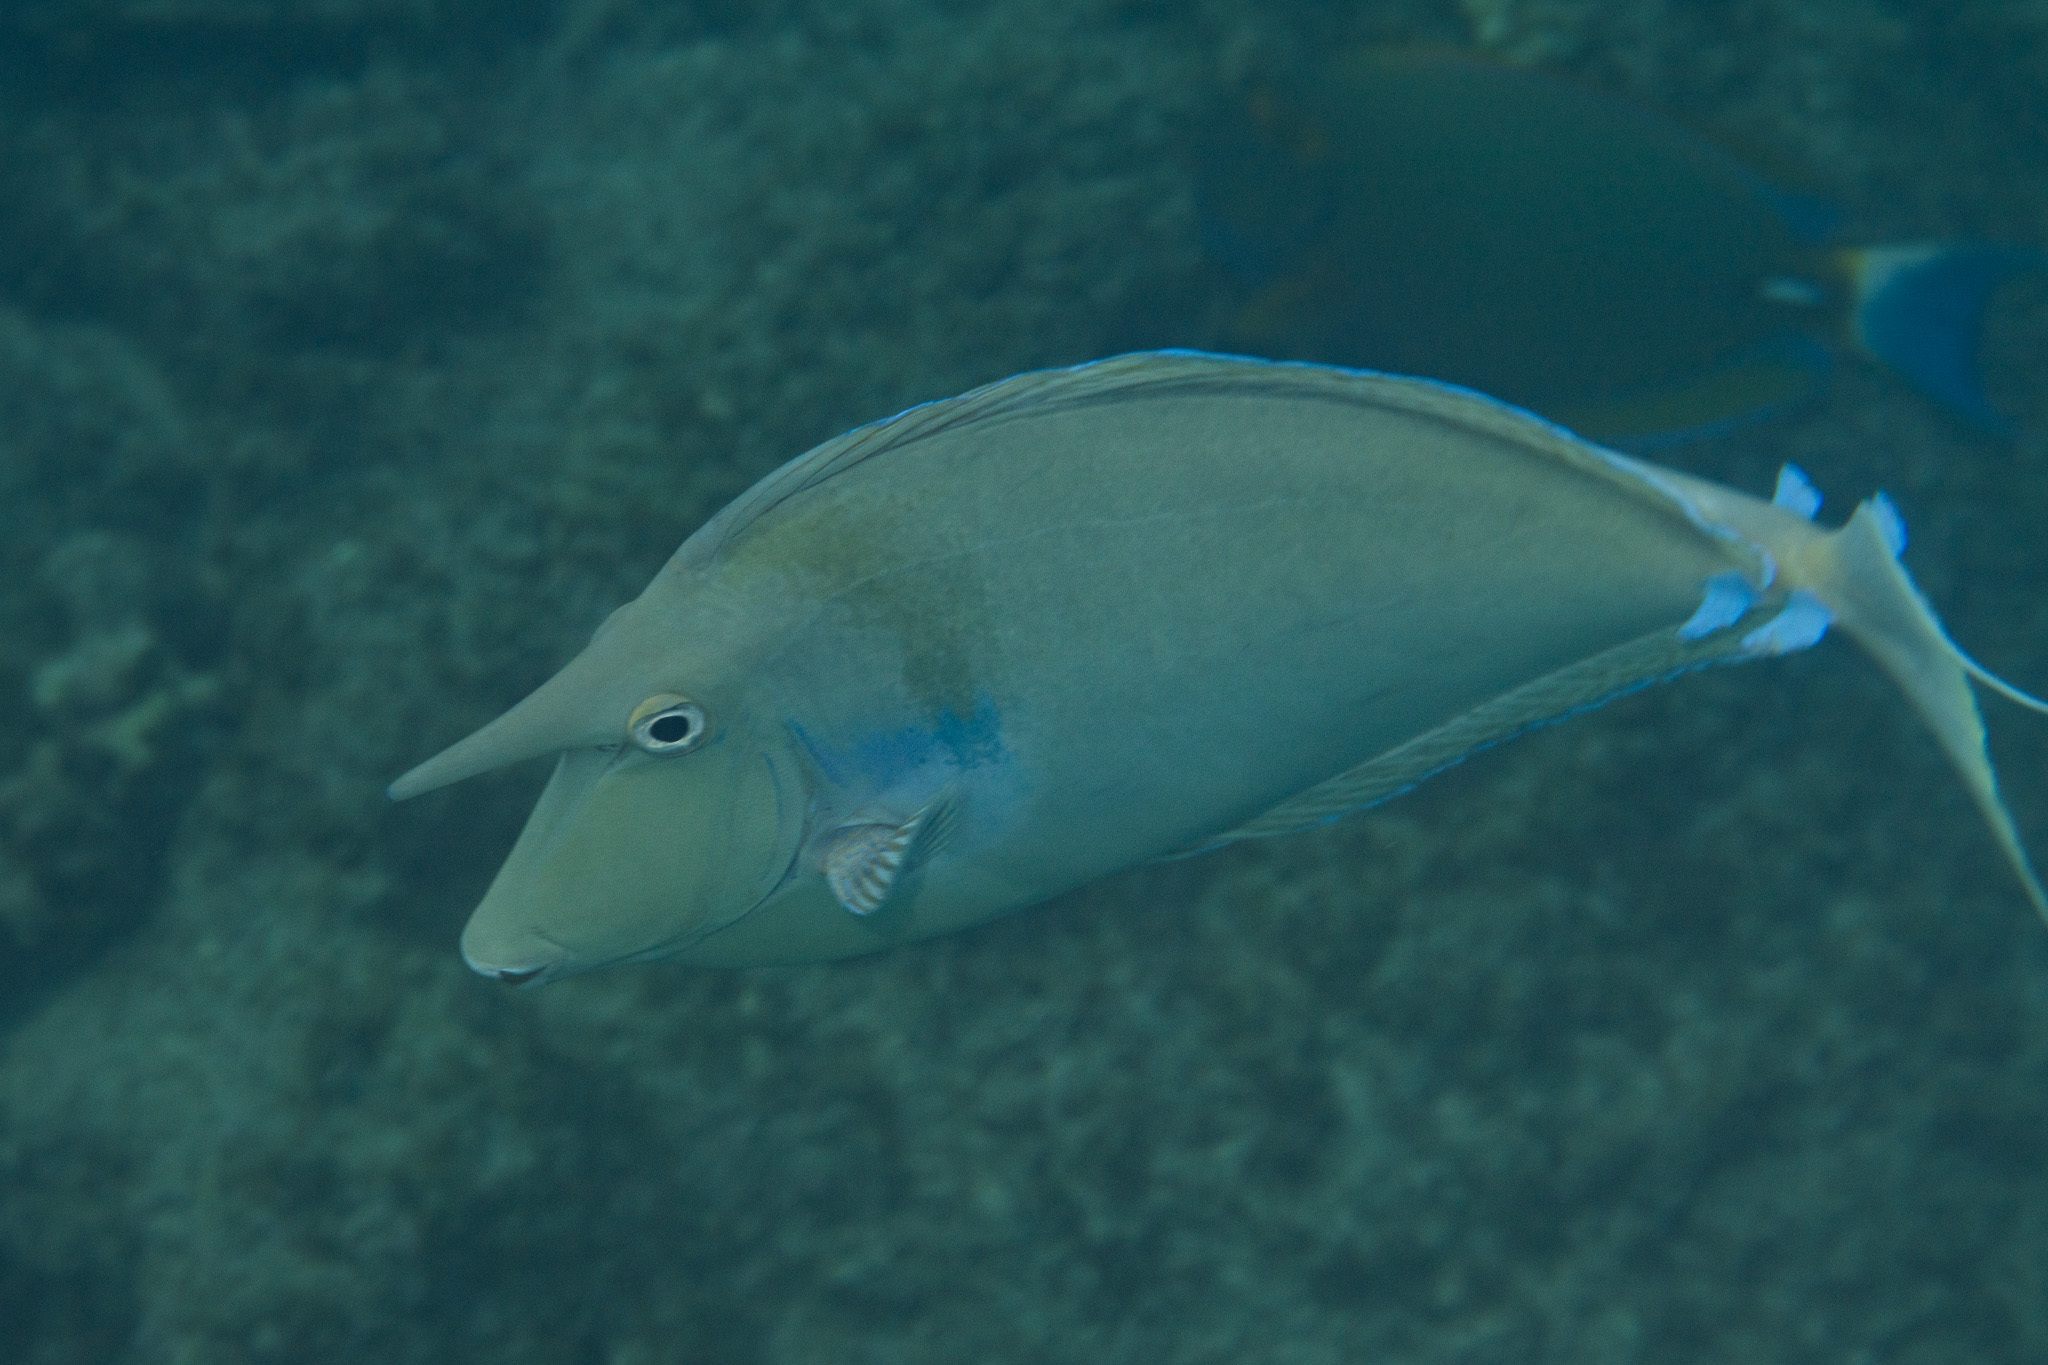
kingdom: Animalia
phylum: Chordata
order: Perciformes
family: Acanthuridae
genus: Naso
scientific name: Naso unicornis
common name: Bluespine unicornfish
